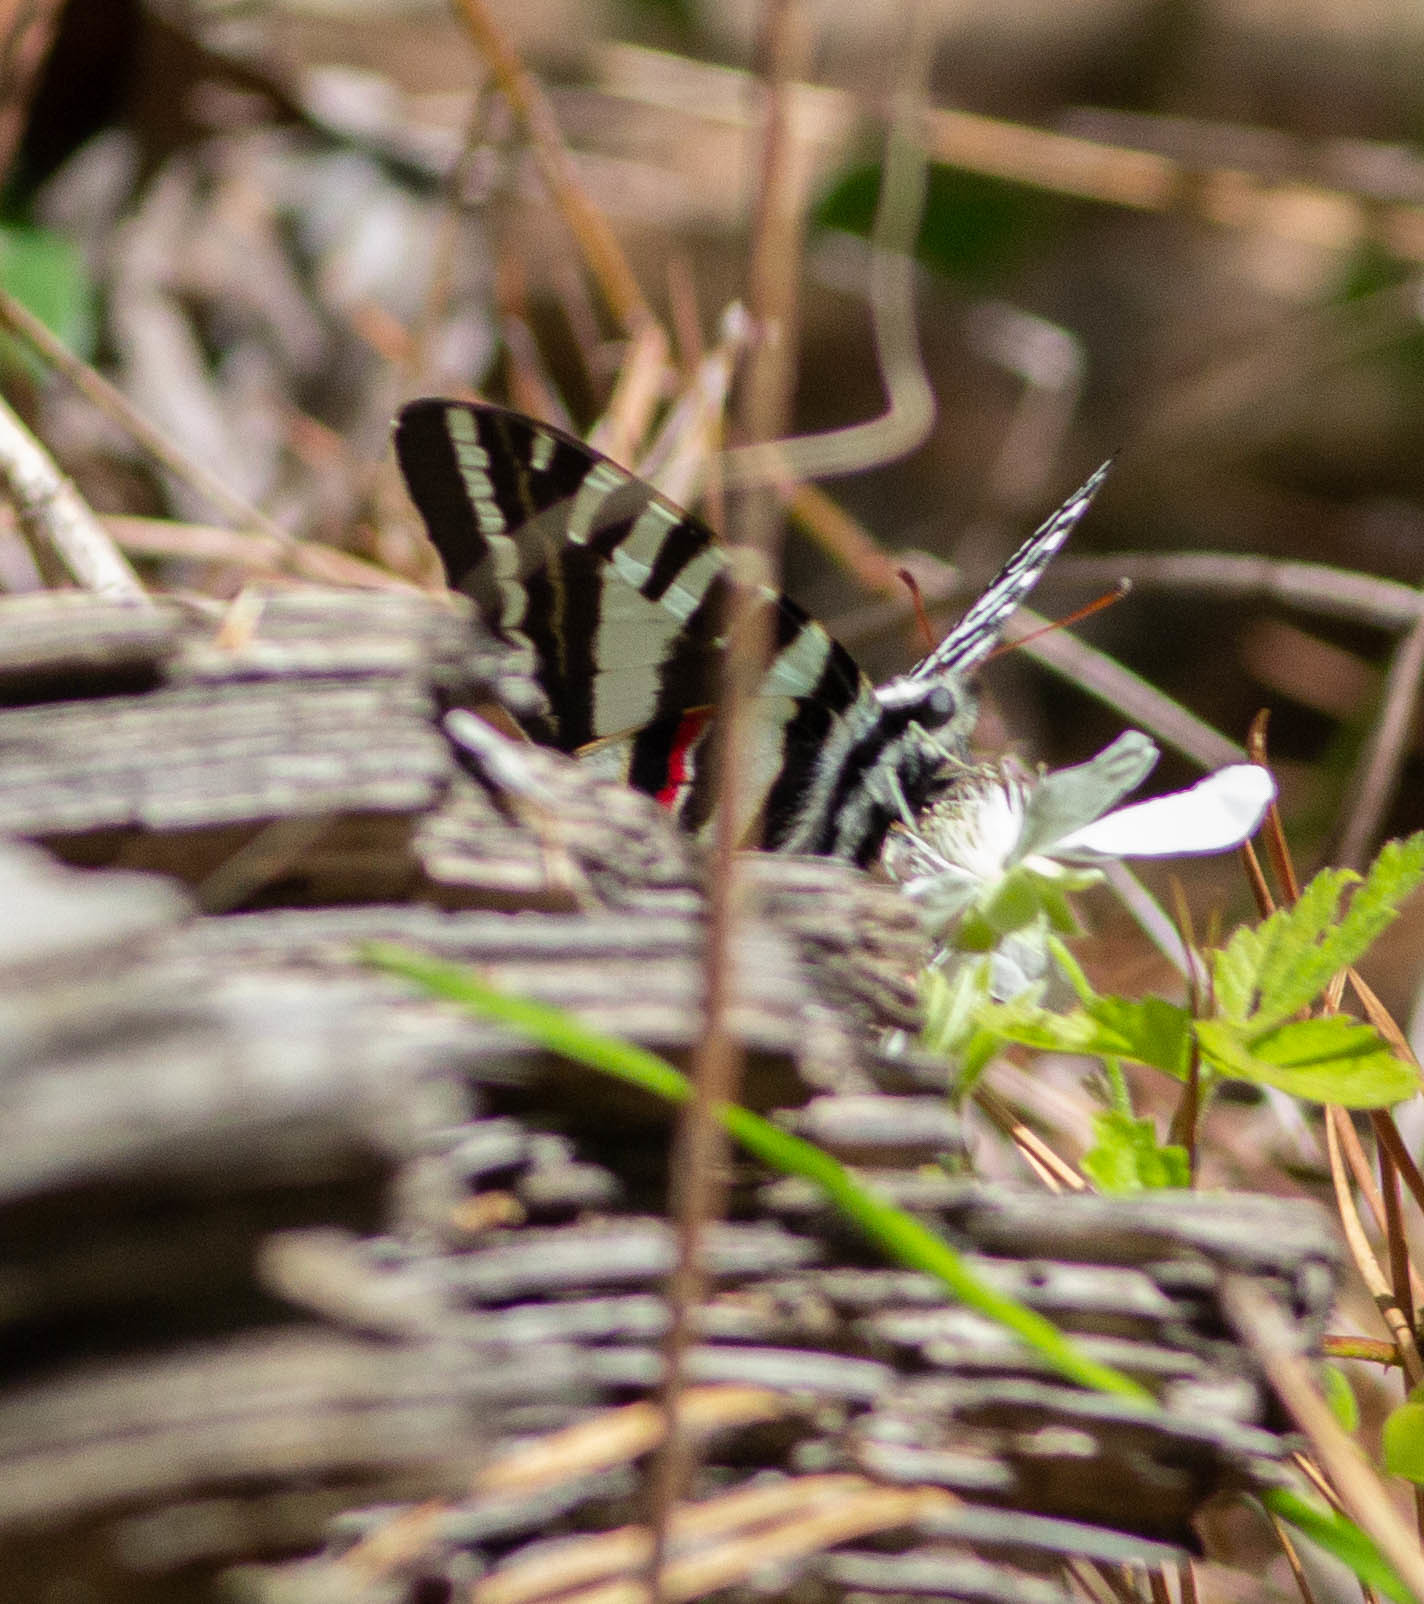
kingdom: Animalia
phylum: Arthropoda
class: Insecta
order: Lepidoptera
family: Papilionidae
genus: Protographium
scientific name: Protographium marcellus
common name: Zebra swallowtail
